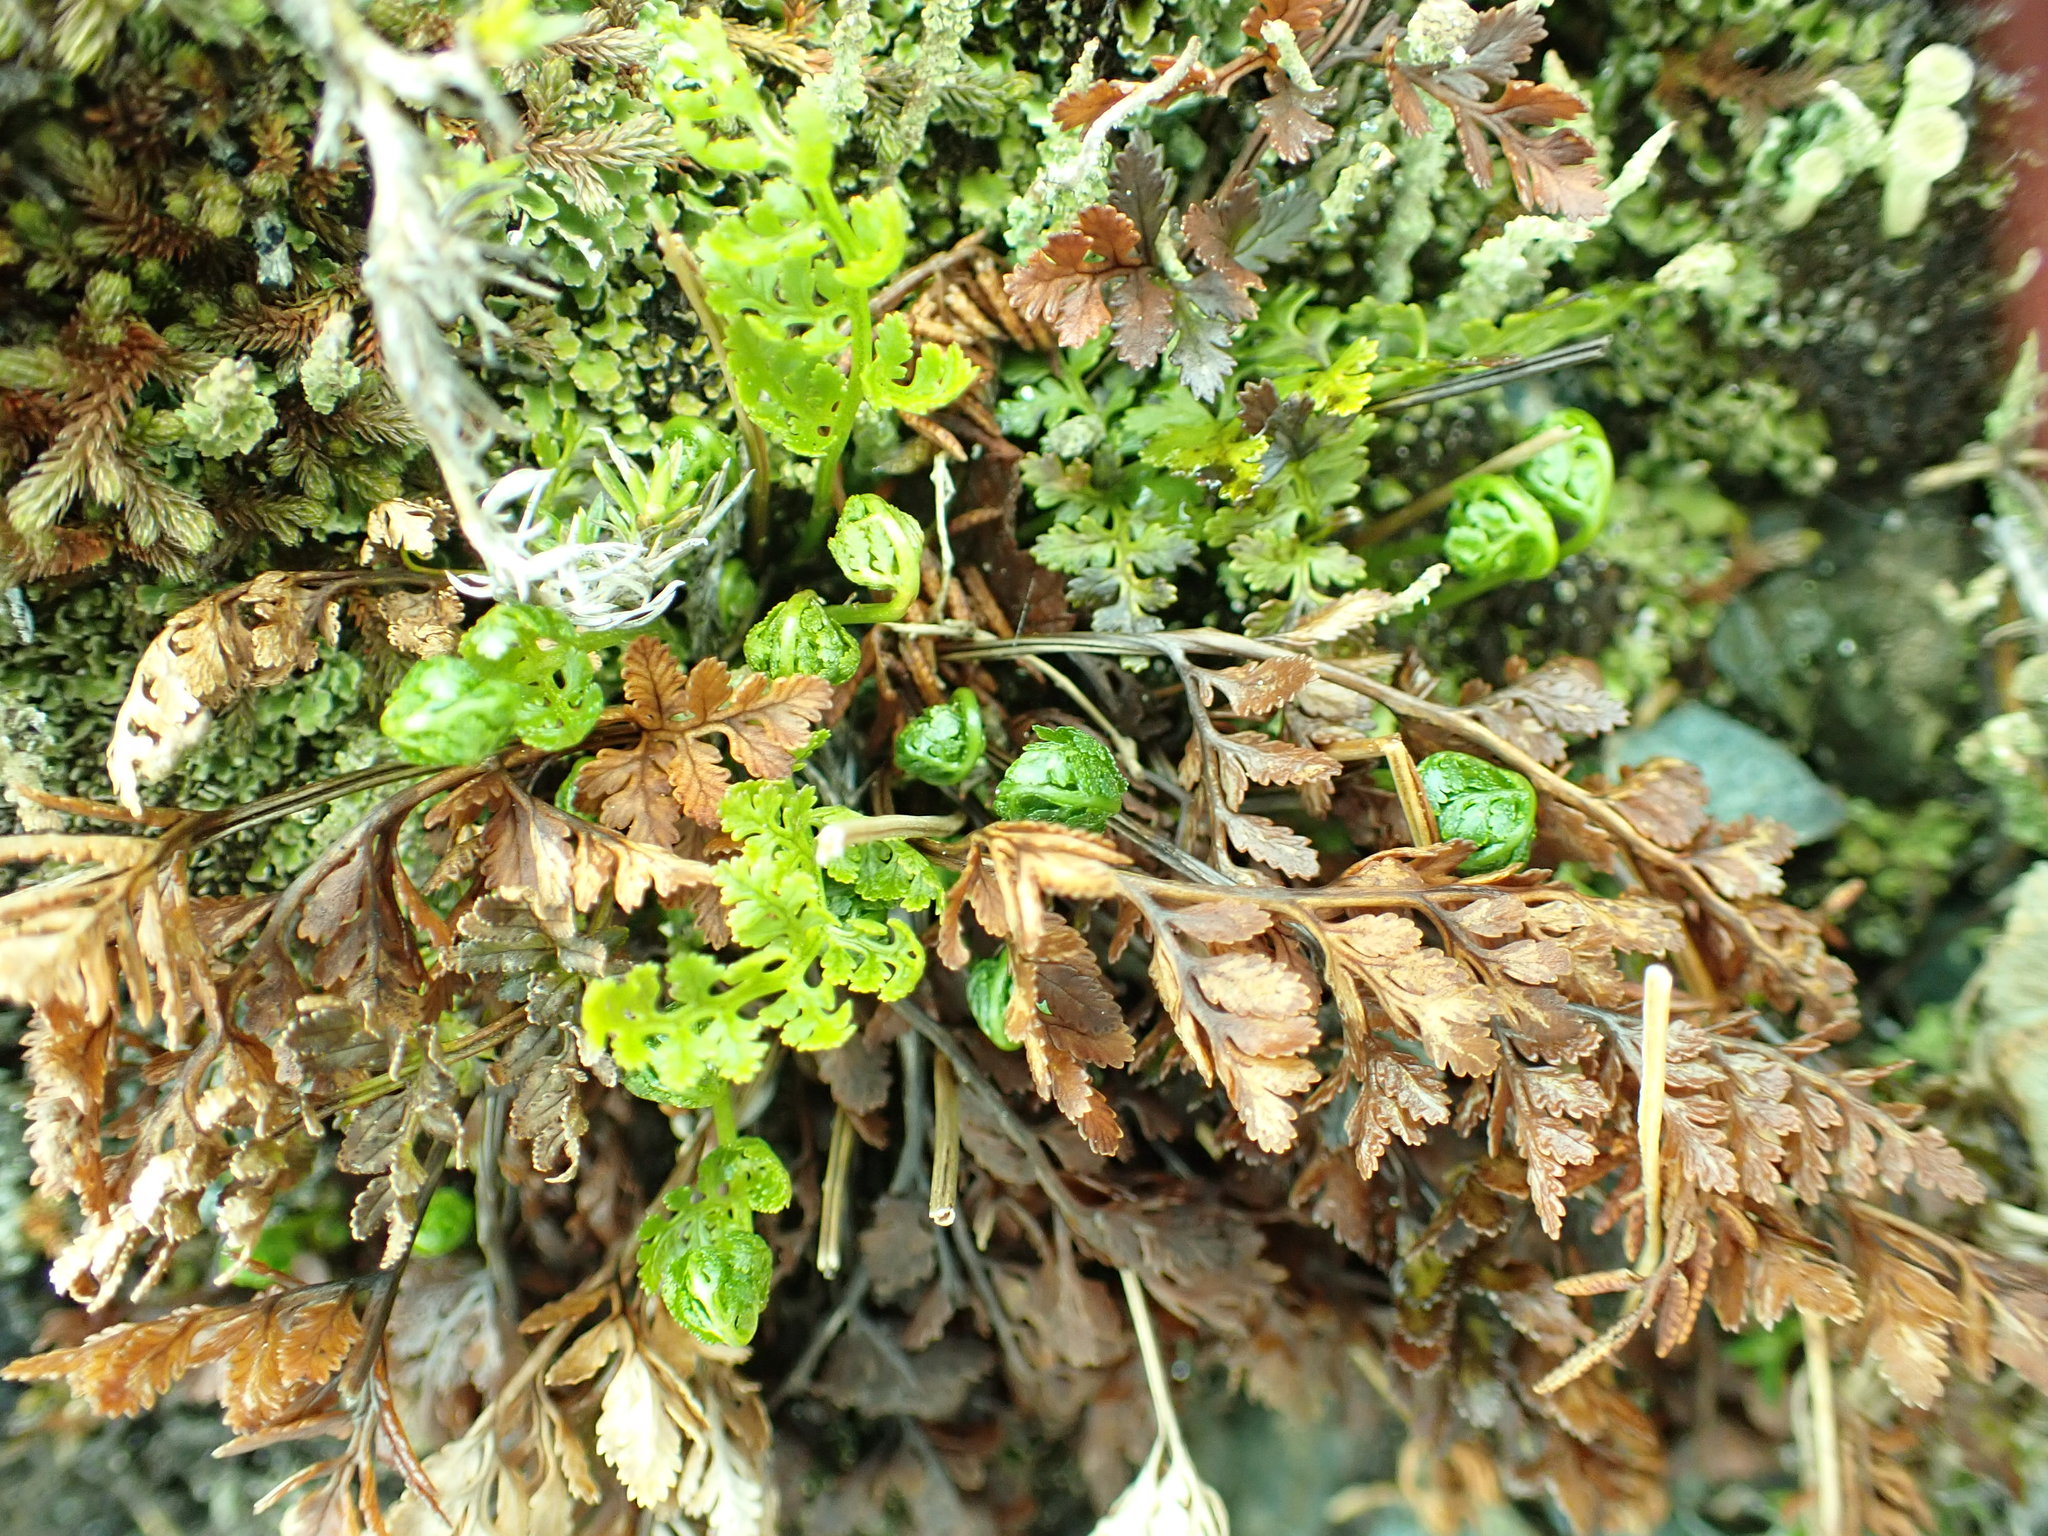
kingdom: Plantae
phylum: Tracheophyta
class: Polypodiopsida
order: Polypodiales
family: Pteridaceae
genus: Cryptogramma
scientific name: Cryptogramma acrostichoides
